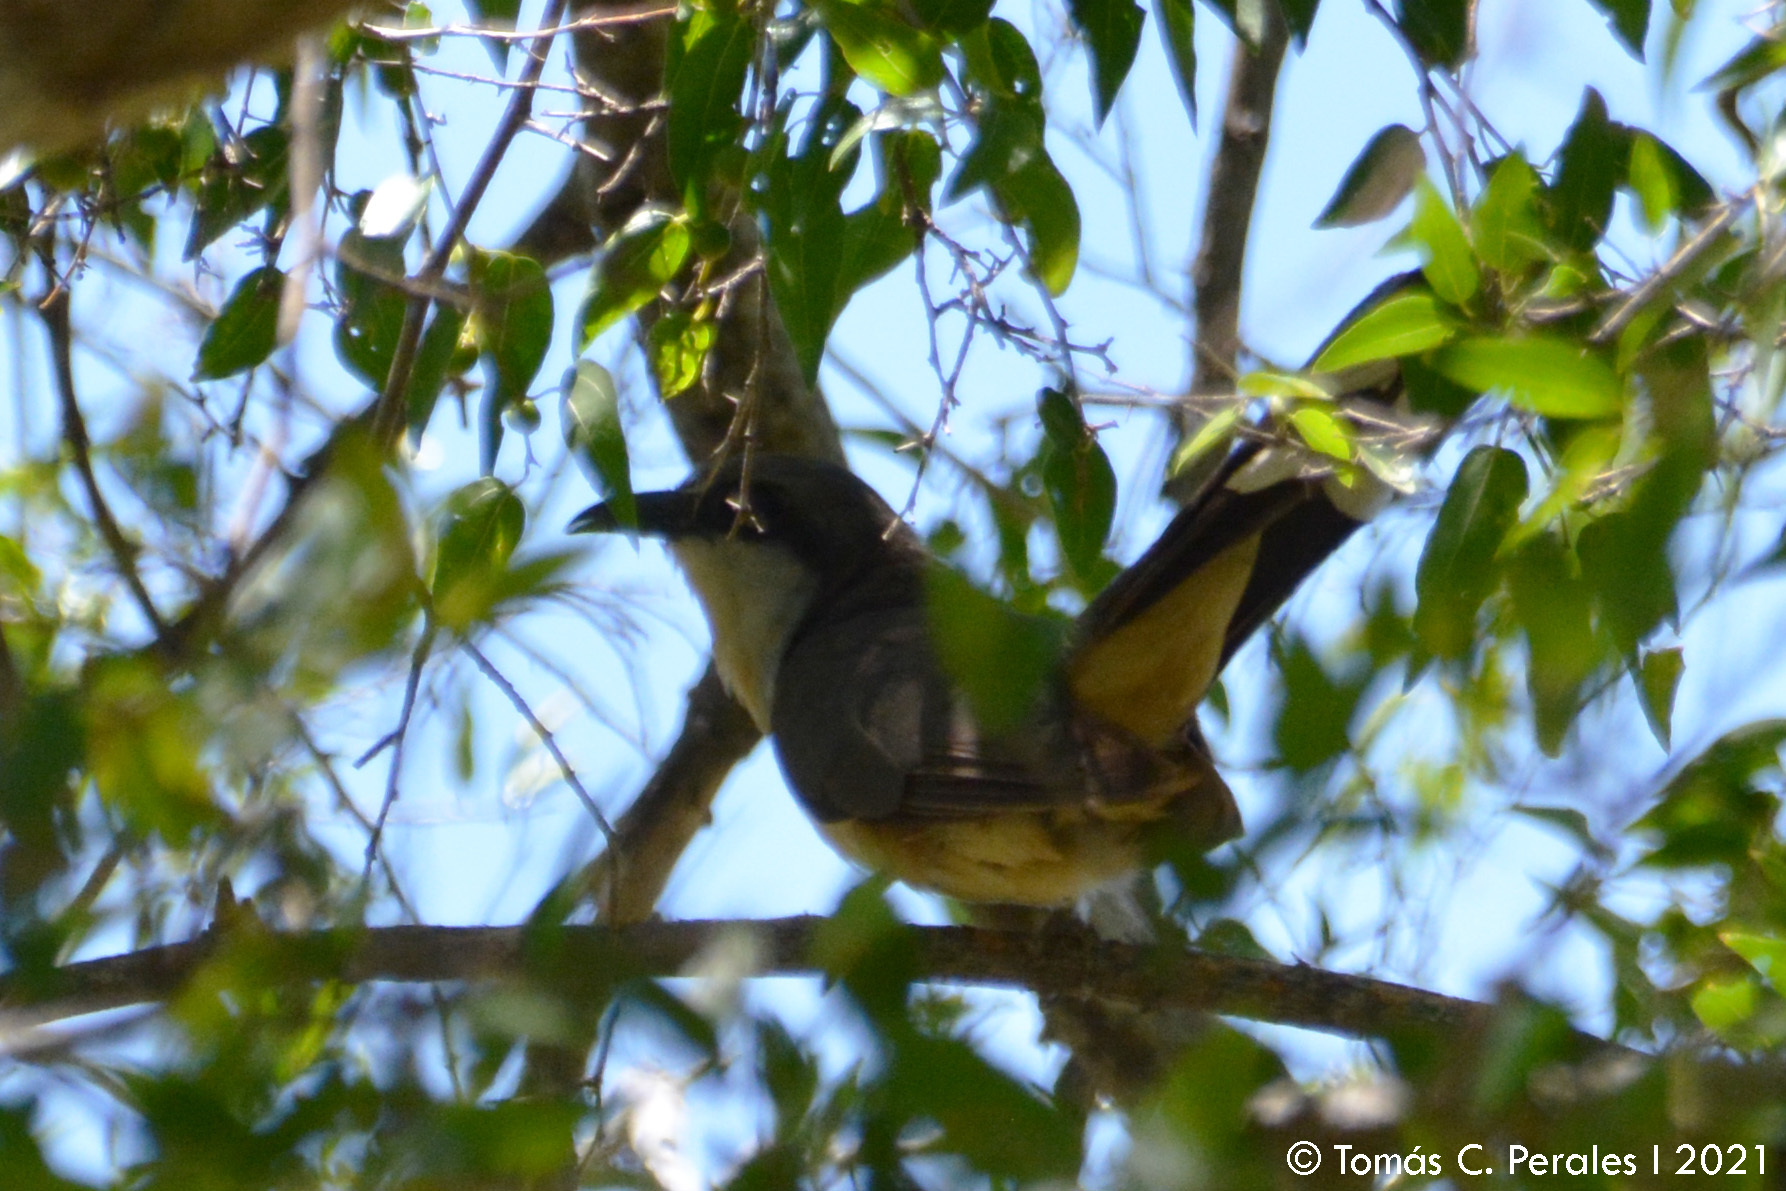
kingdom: Animalia
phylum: Chordata
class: Aves
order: Cuculiformes
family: Cuculidae
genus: Coccyzus
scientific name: Coccyzus melacoryphus
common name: Dark-billed cuckoo
